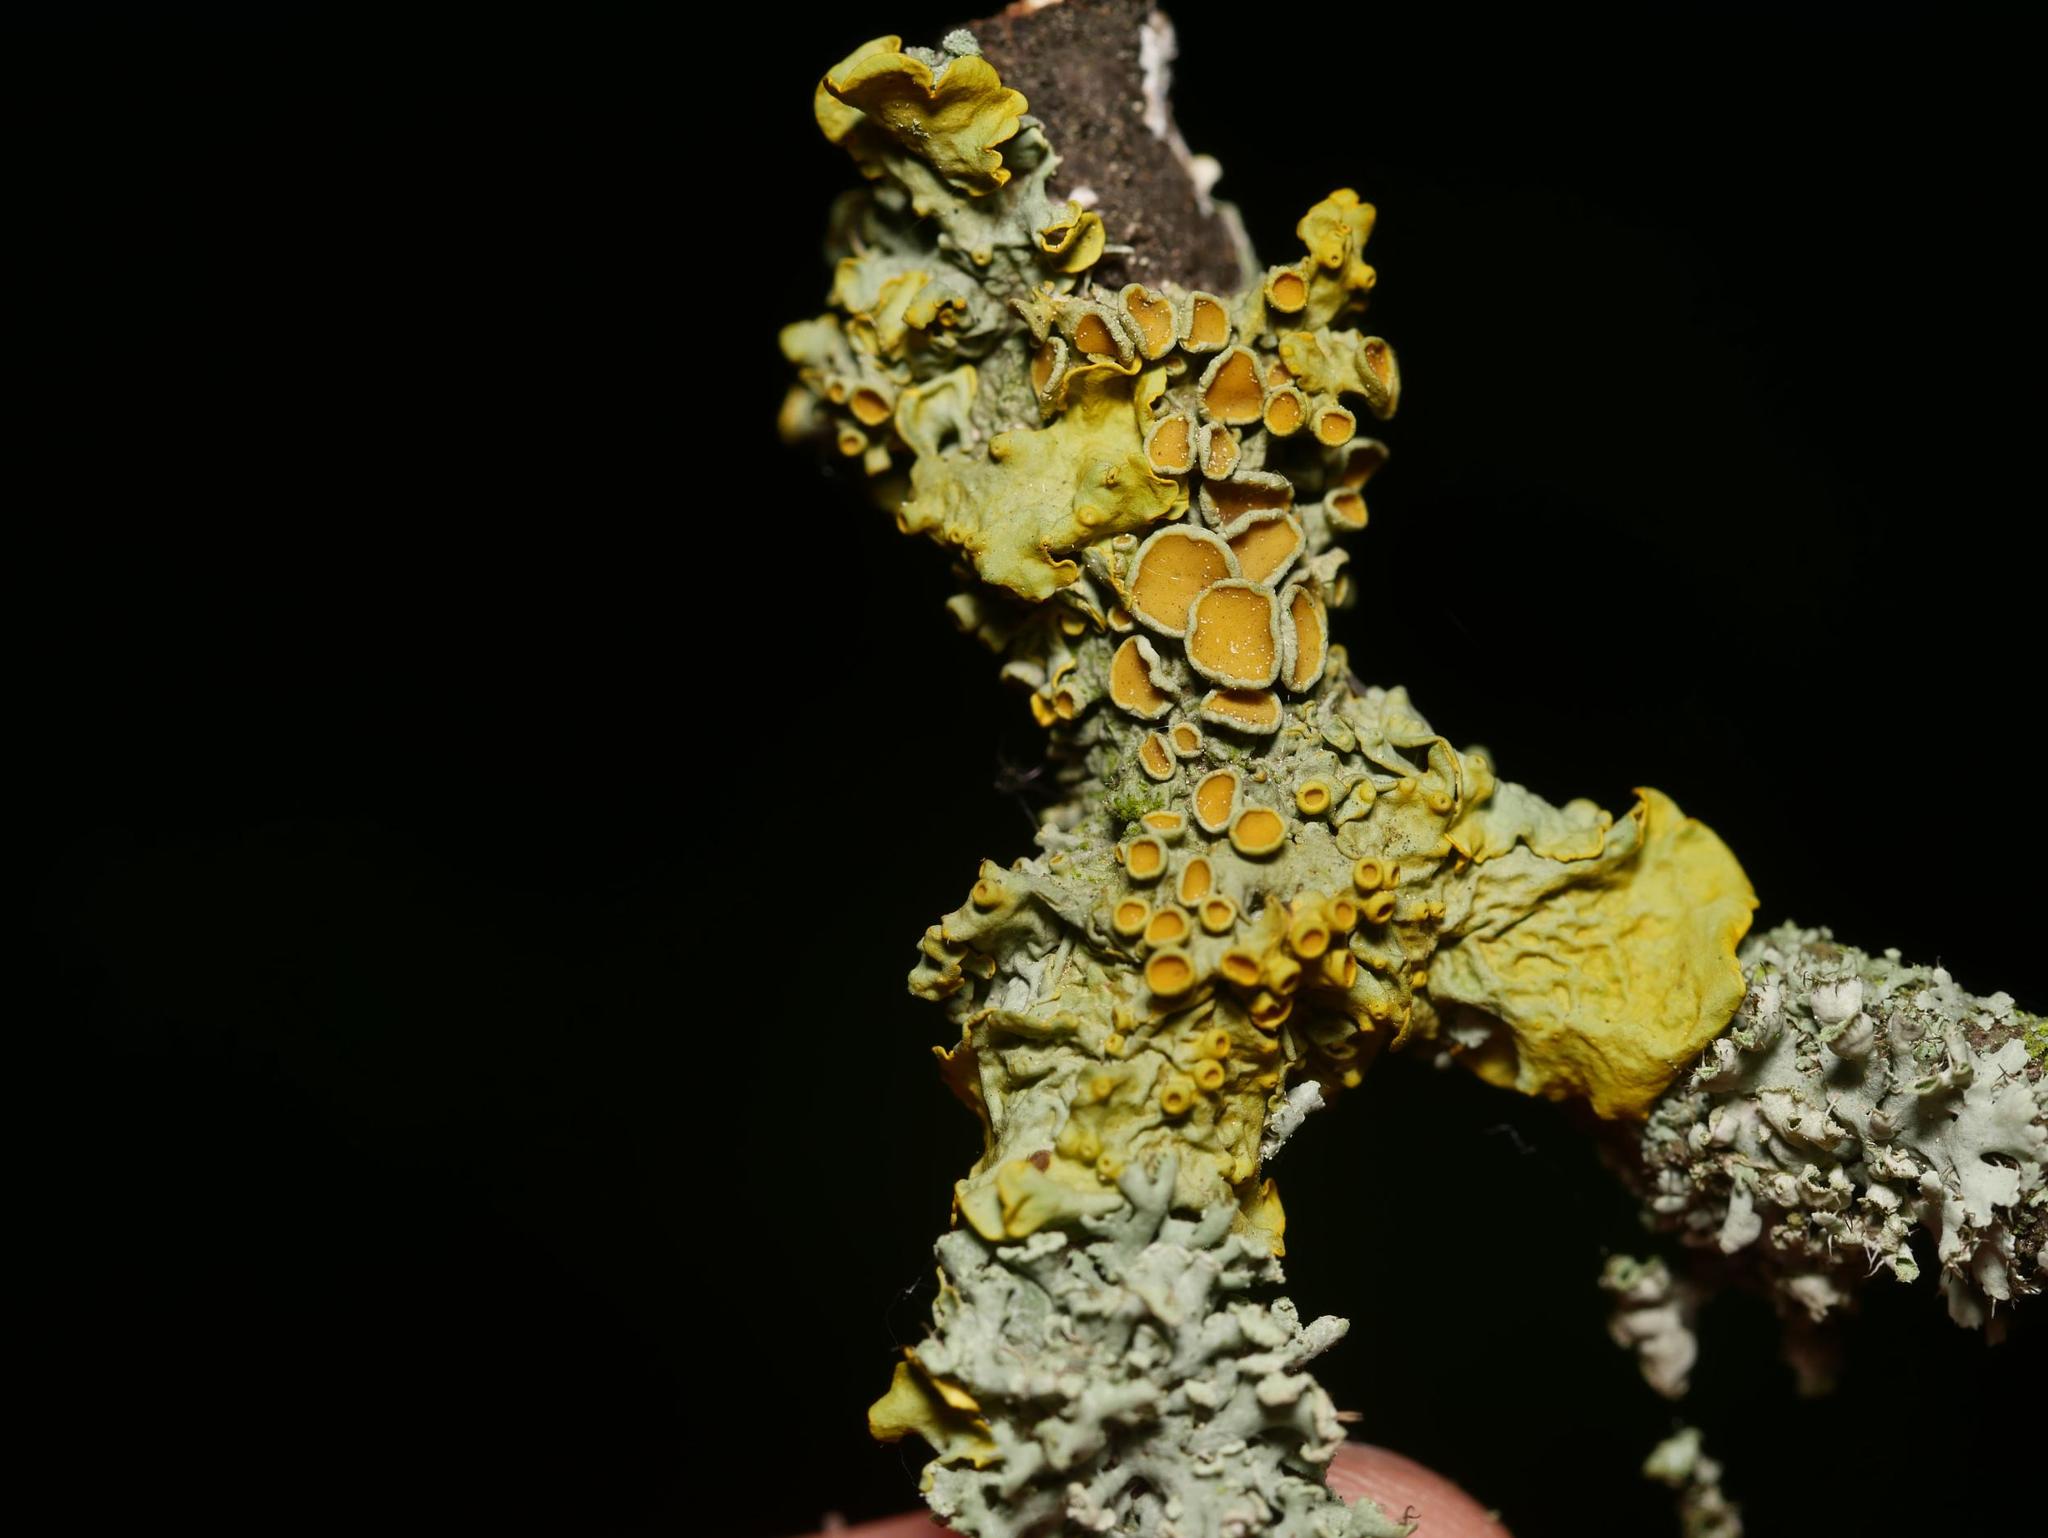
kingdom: Fungi
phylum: Ascomycota
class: Lecanoromycetes
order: Teloschistales
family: Teloschistaceae
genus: Xanthoria
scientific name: Xanthoria parietina
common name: Common orange lichen
